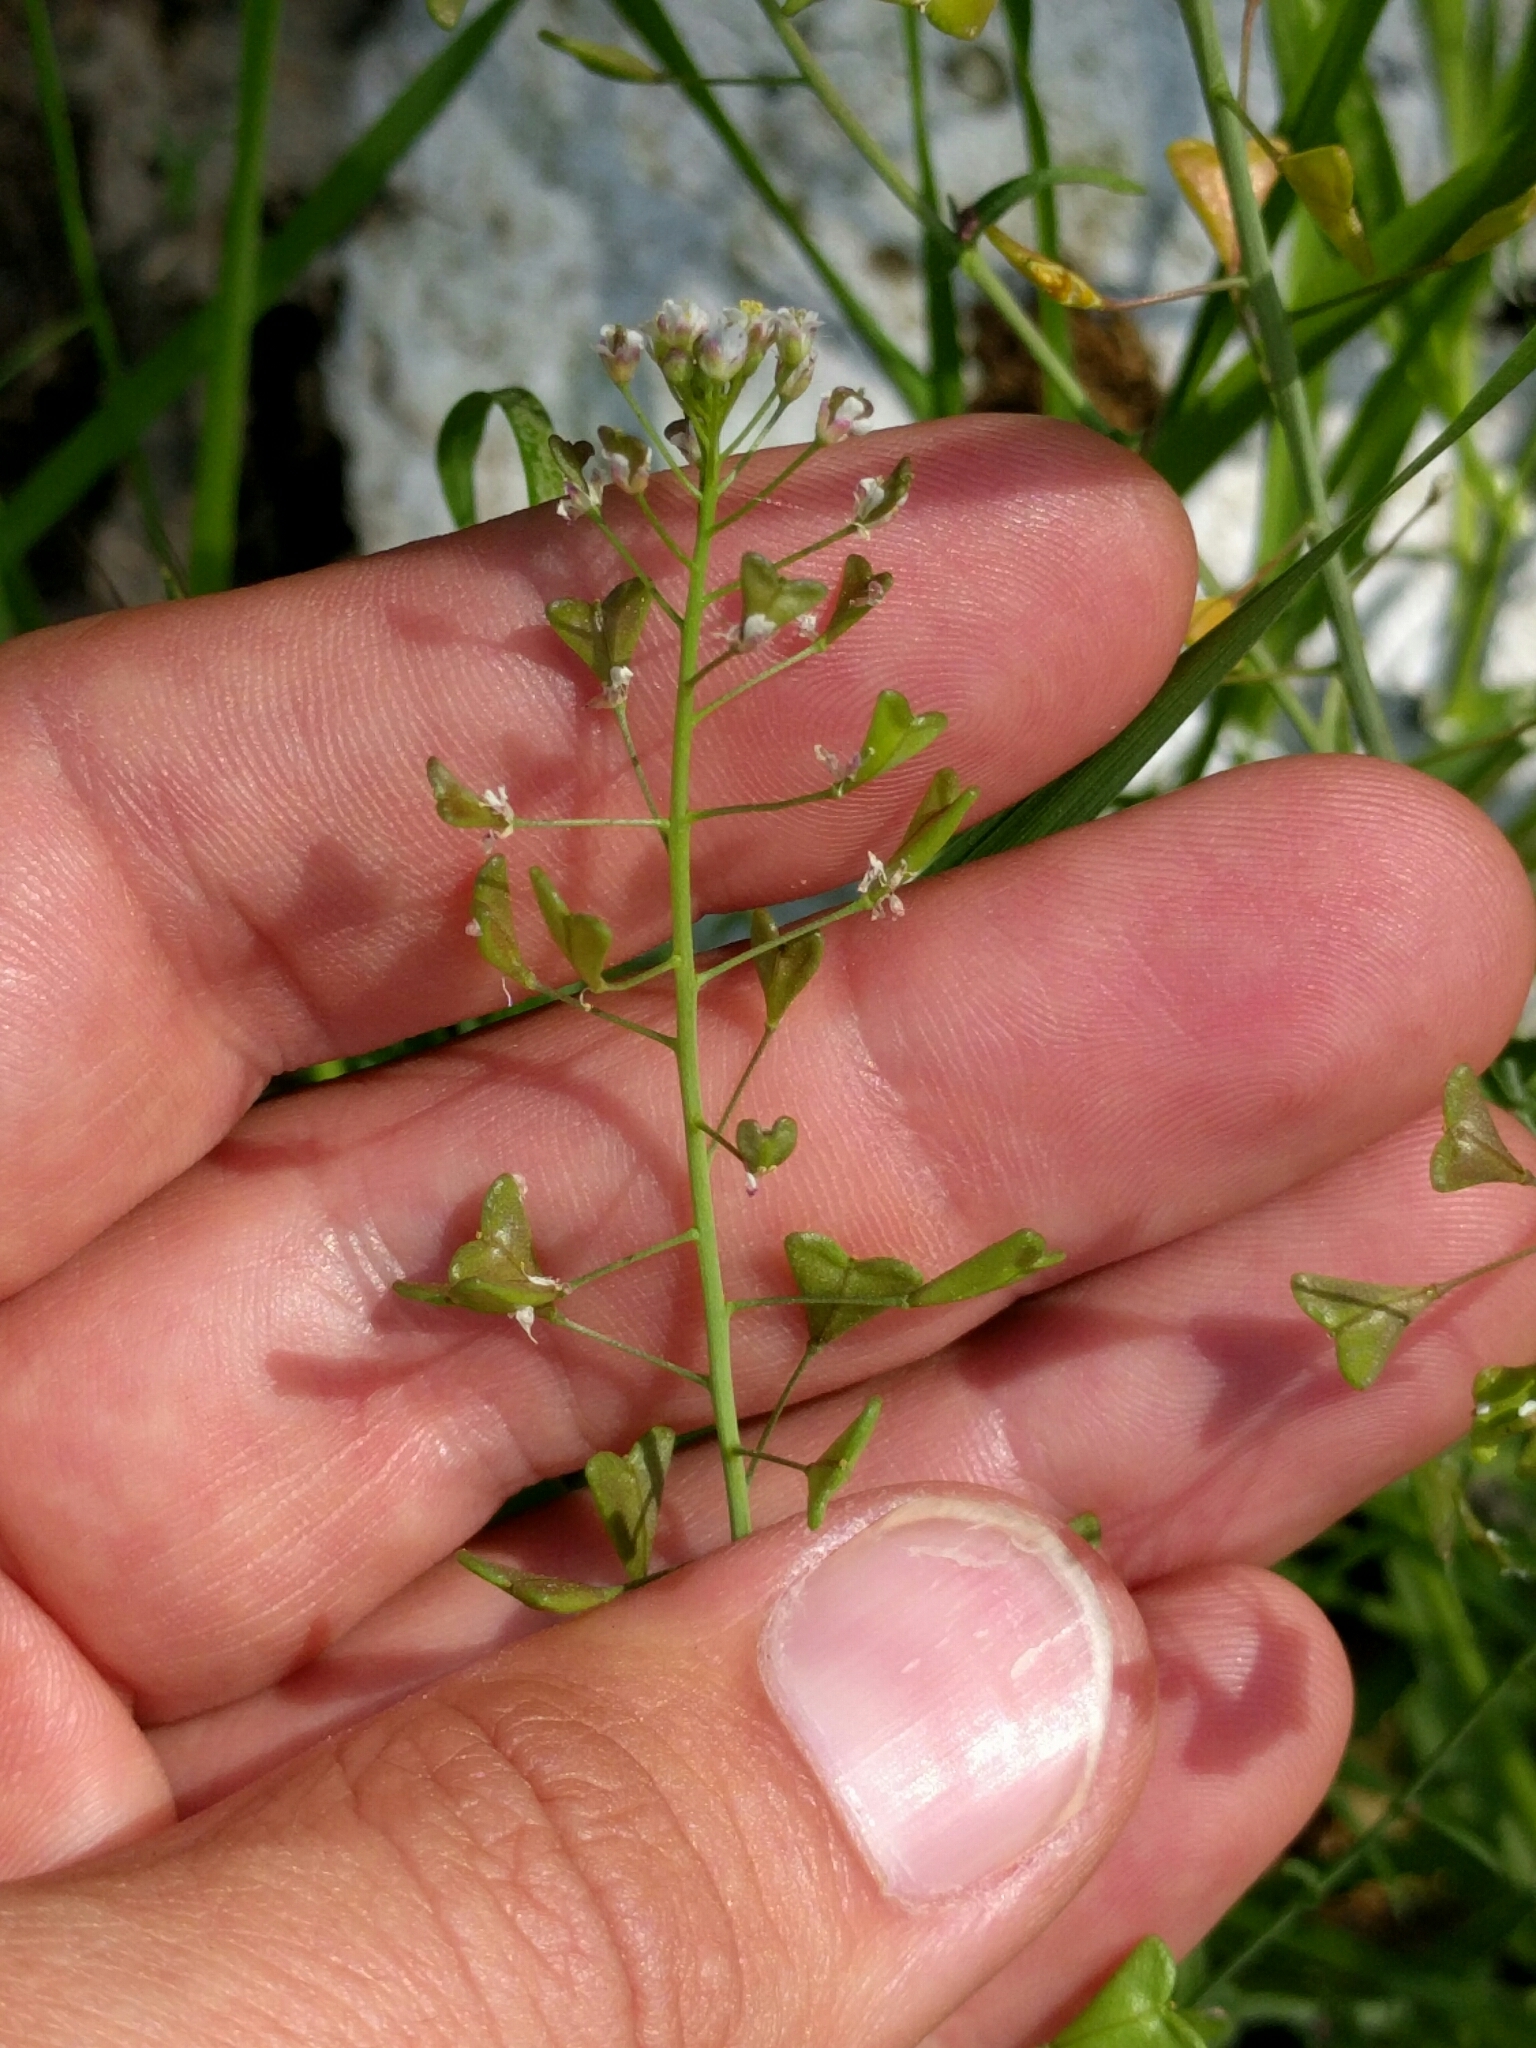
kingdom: Plantae
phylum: Tracheophyta
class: Magnoliopsida
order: Brassicales
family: Brassicaceae
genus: Capsella
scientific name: Capsella bursa-pastoris
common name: Shepherd's purse
